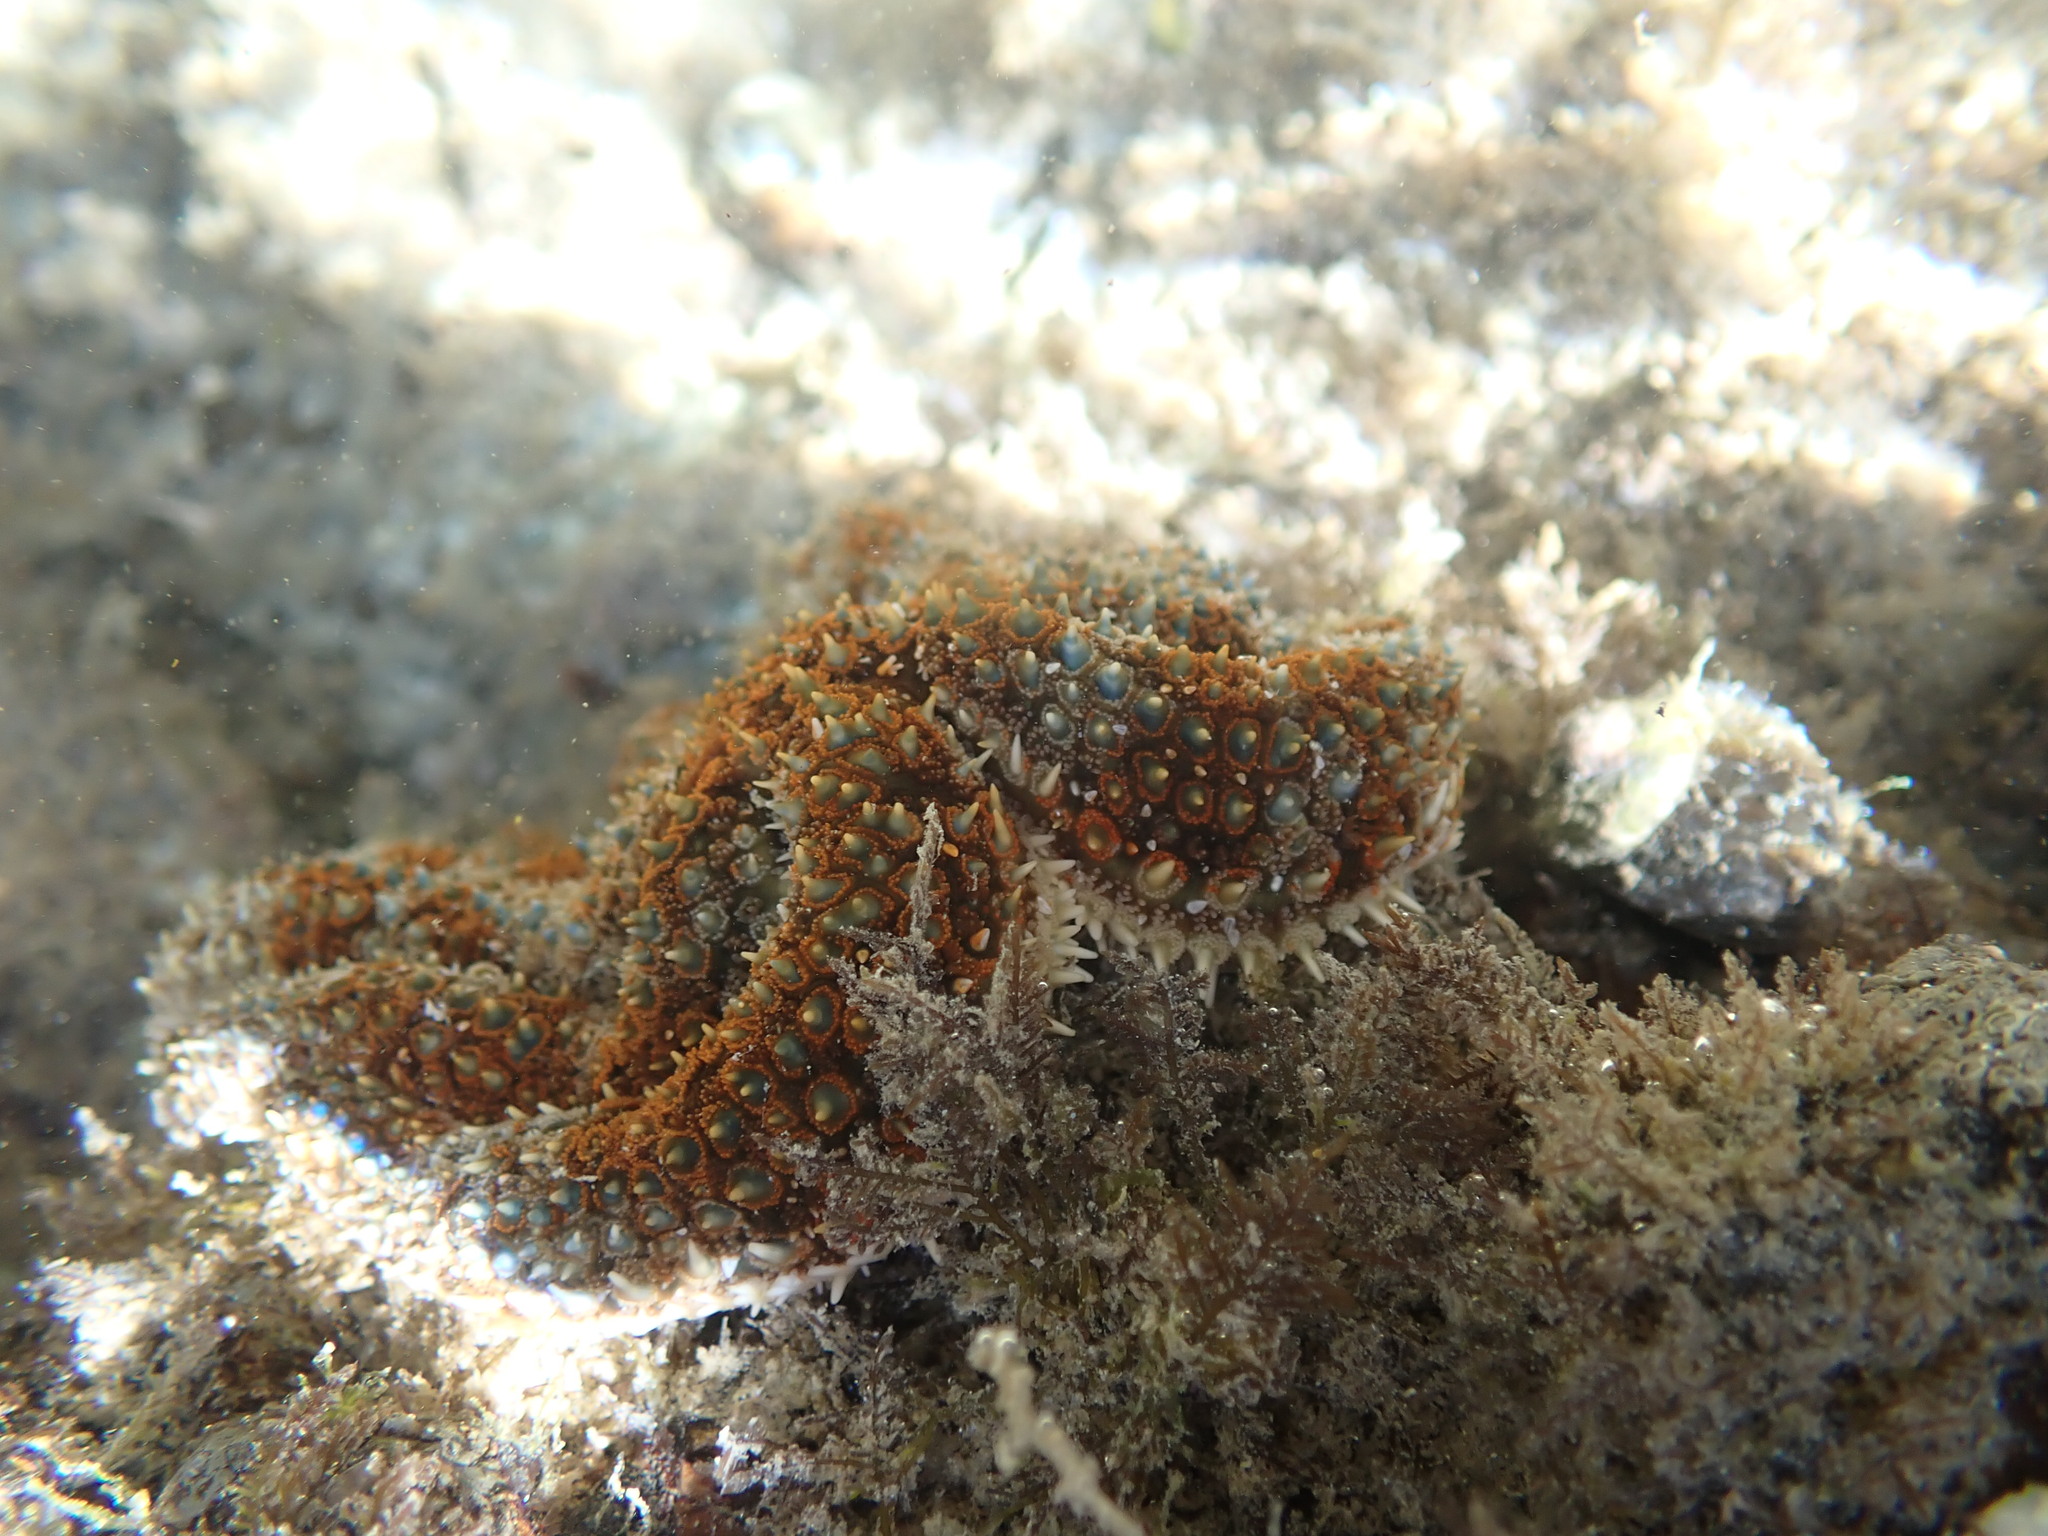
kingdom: Animalia
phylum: Echinodermata
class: Asteroidea
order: Forcipulatida
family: Asteriidae
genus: Coscinasterias
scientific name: Coscinasterias muricata
